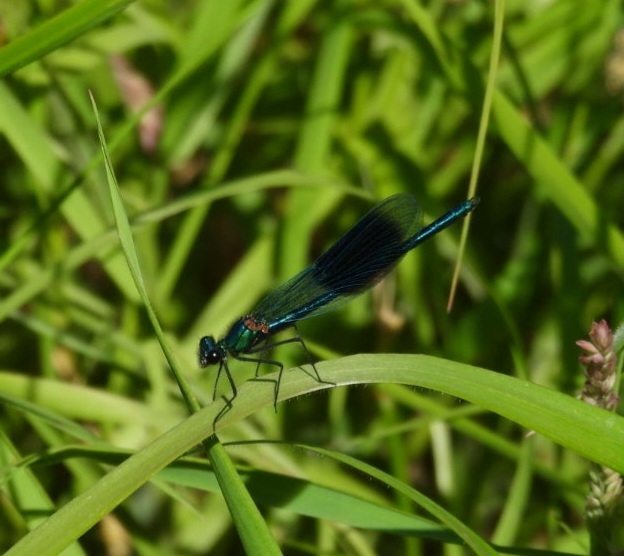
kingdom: Animalia
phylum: Arthropoda
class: Insecta
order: Odonata
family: Calopterygidae
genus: Calopteryx
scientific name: Calopteryx splendens
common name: Banded demoiselle
